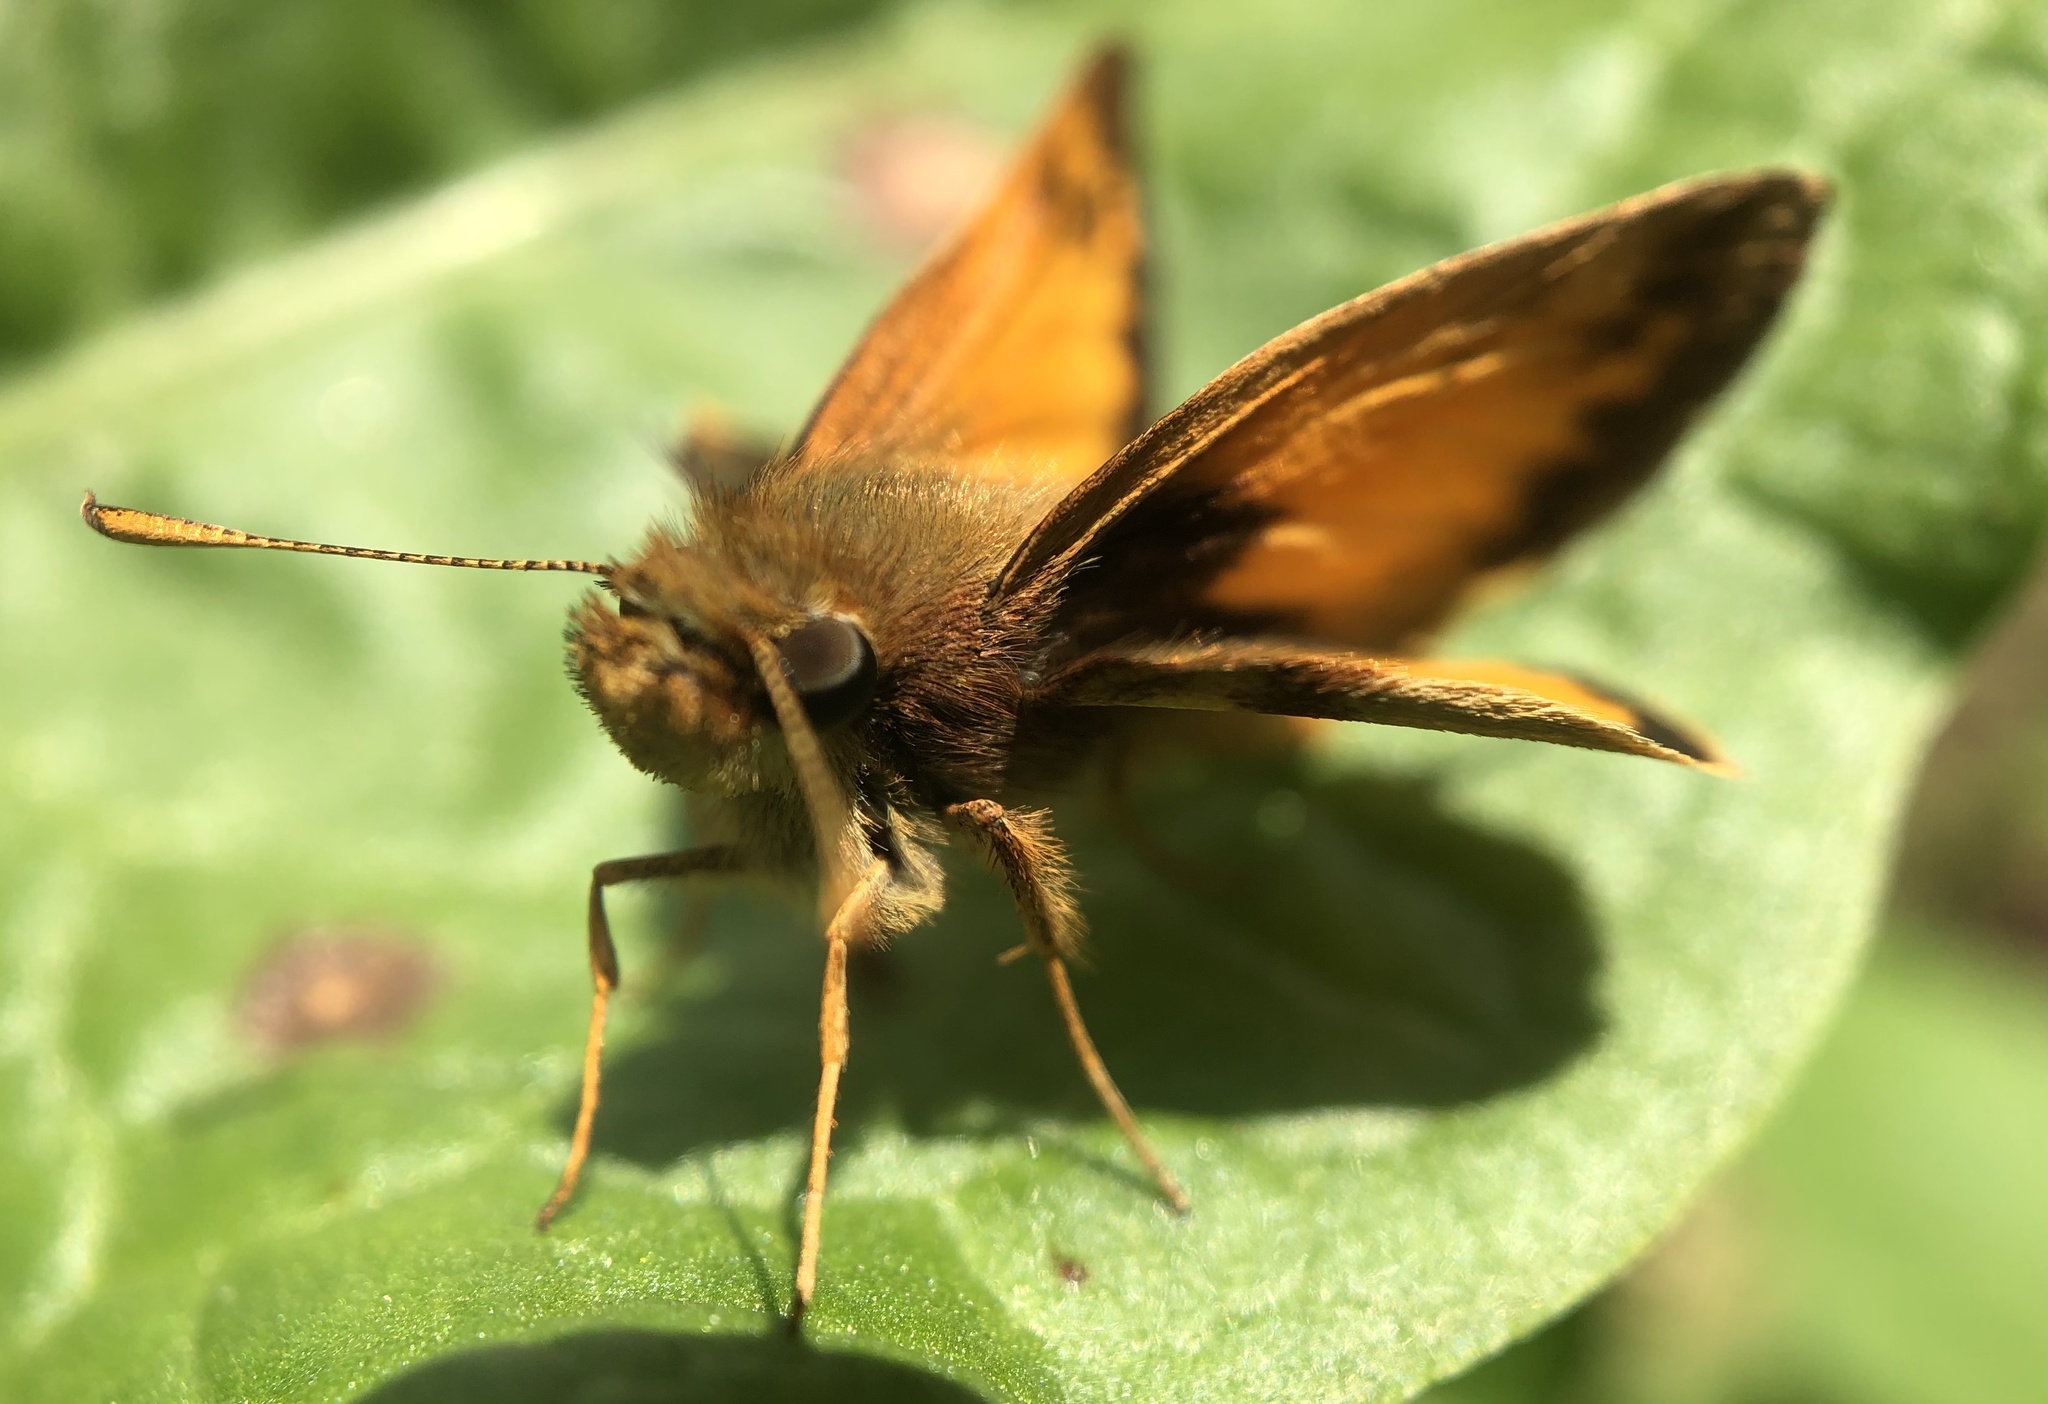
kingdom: Animalia
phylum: Arthropoda
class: Insecta
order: Lepidoptera
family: Hesperiidae
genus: Lon
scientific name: Lon zabulon
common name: Zabulon skipper
